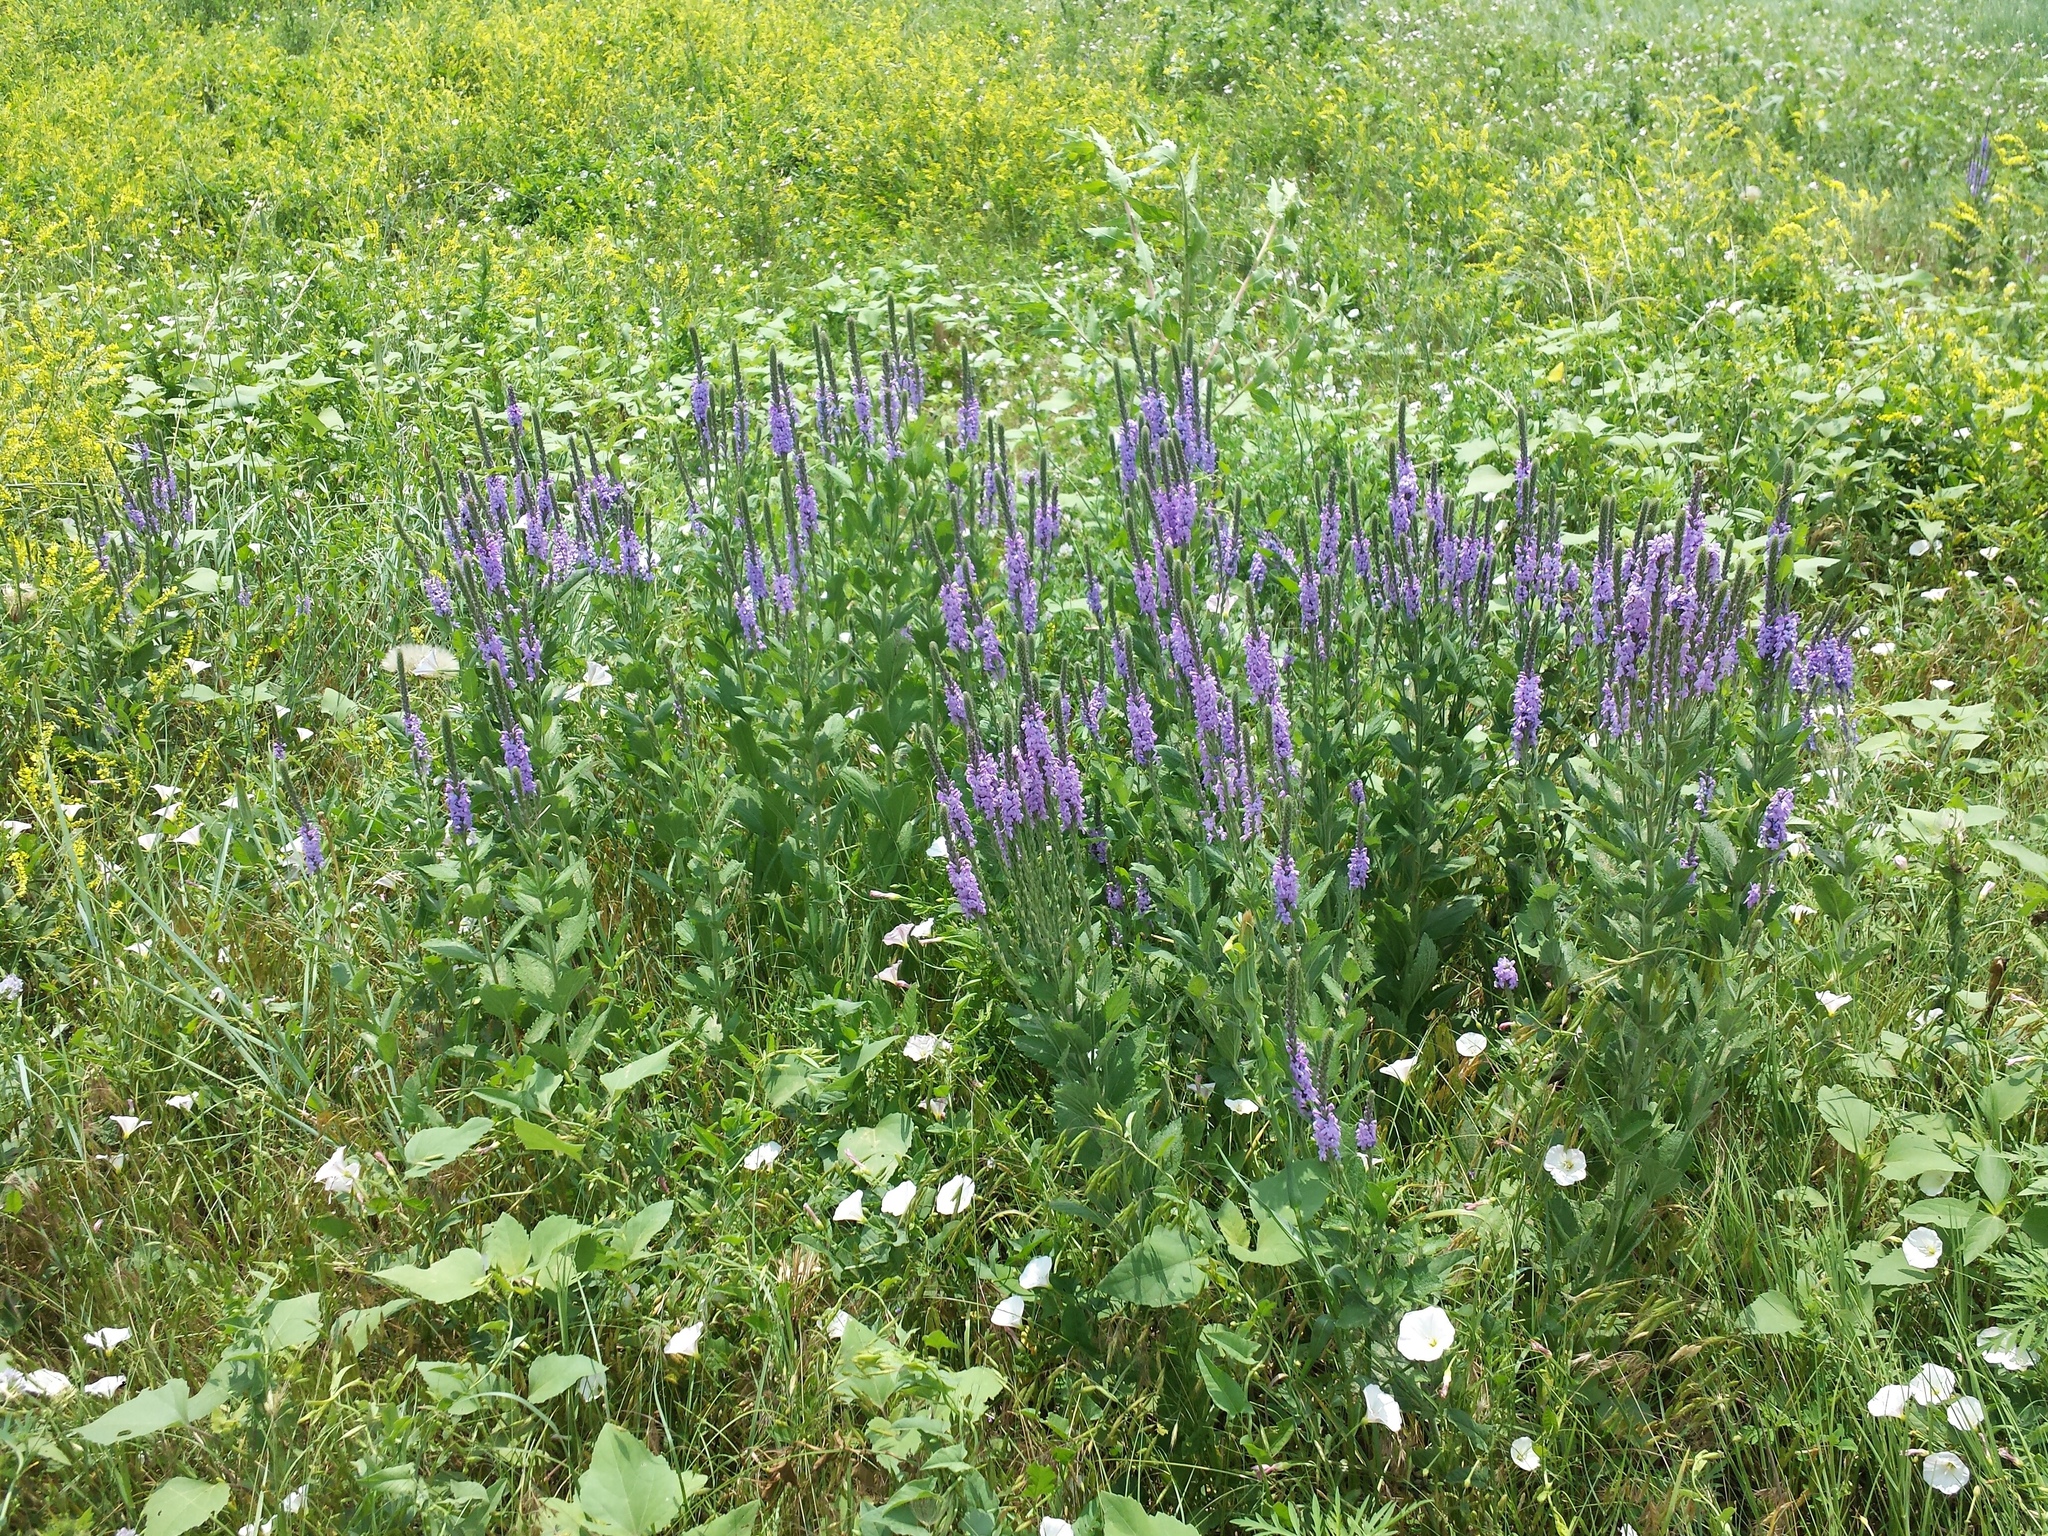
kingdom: Plantae
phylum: Tracheophyta
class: Magnoliopsida
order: Lamiales
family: Verbenaceae
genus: Verbena
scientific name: Verbena stricta
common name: Hoary vervain
